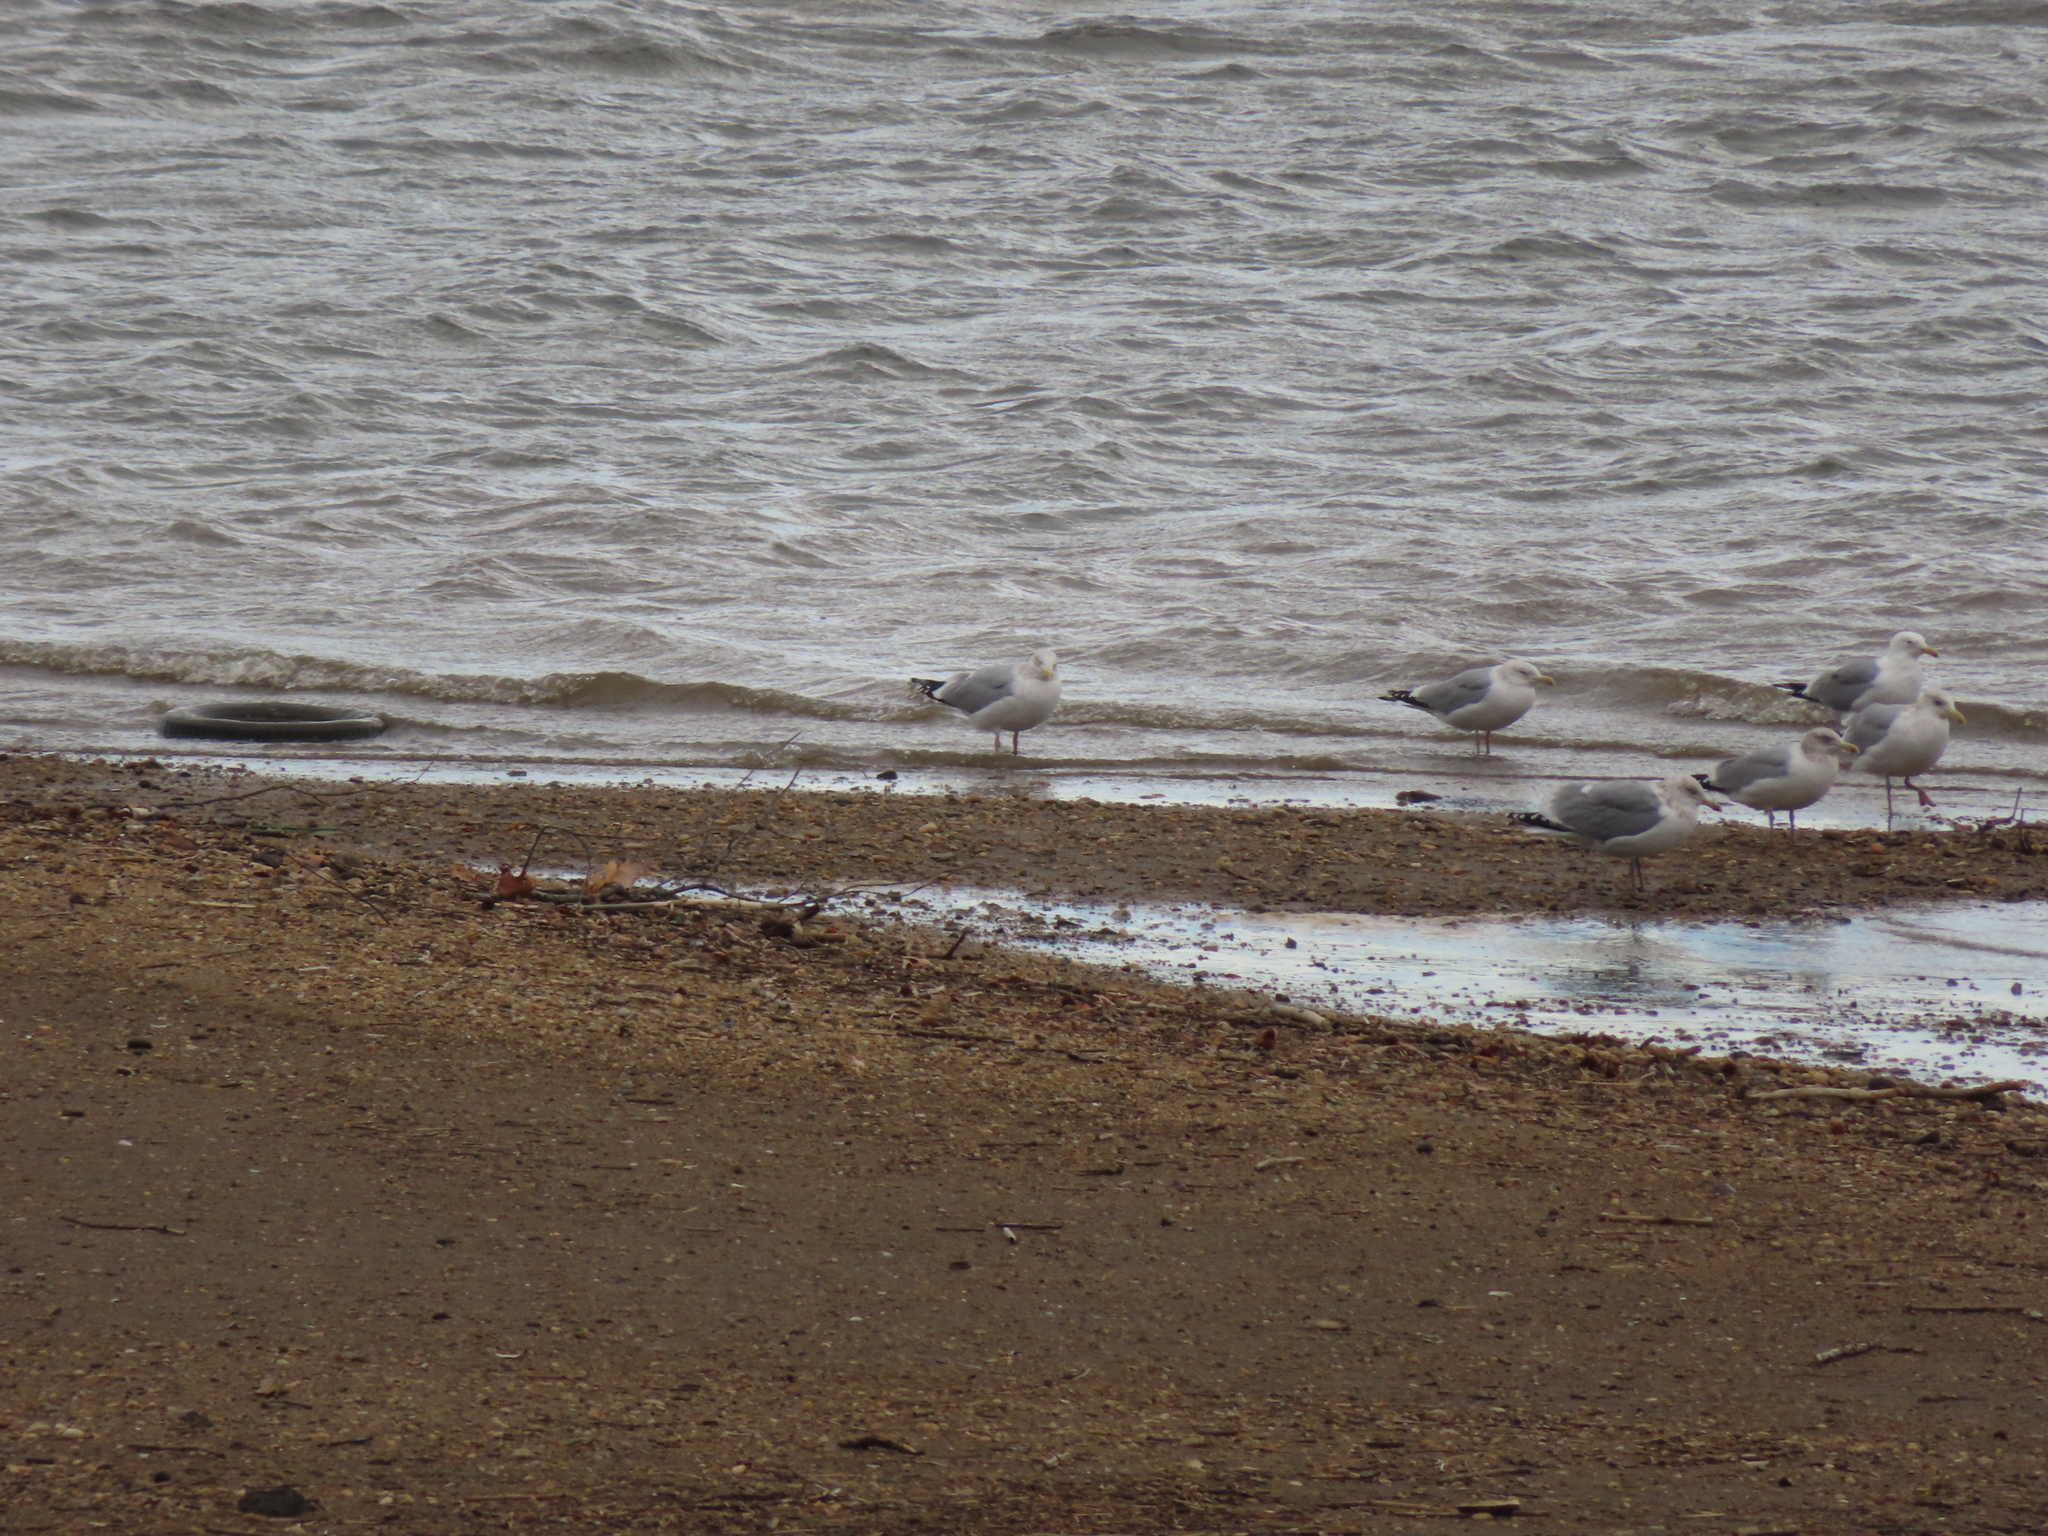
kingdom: Animalia
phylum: Chordata
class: Aves
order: Charadriiformes
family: Laridae
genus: Larus
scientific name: Larus delawarensis
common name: Ring-billed gull
